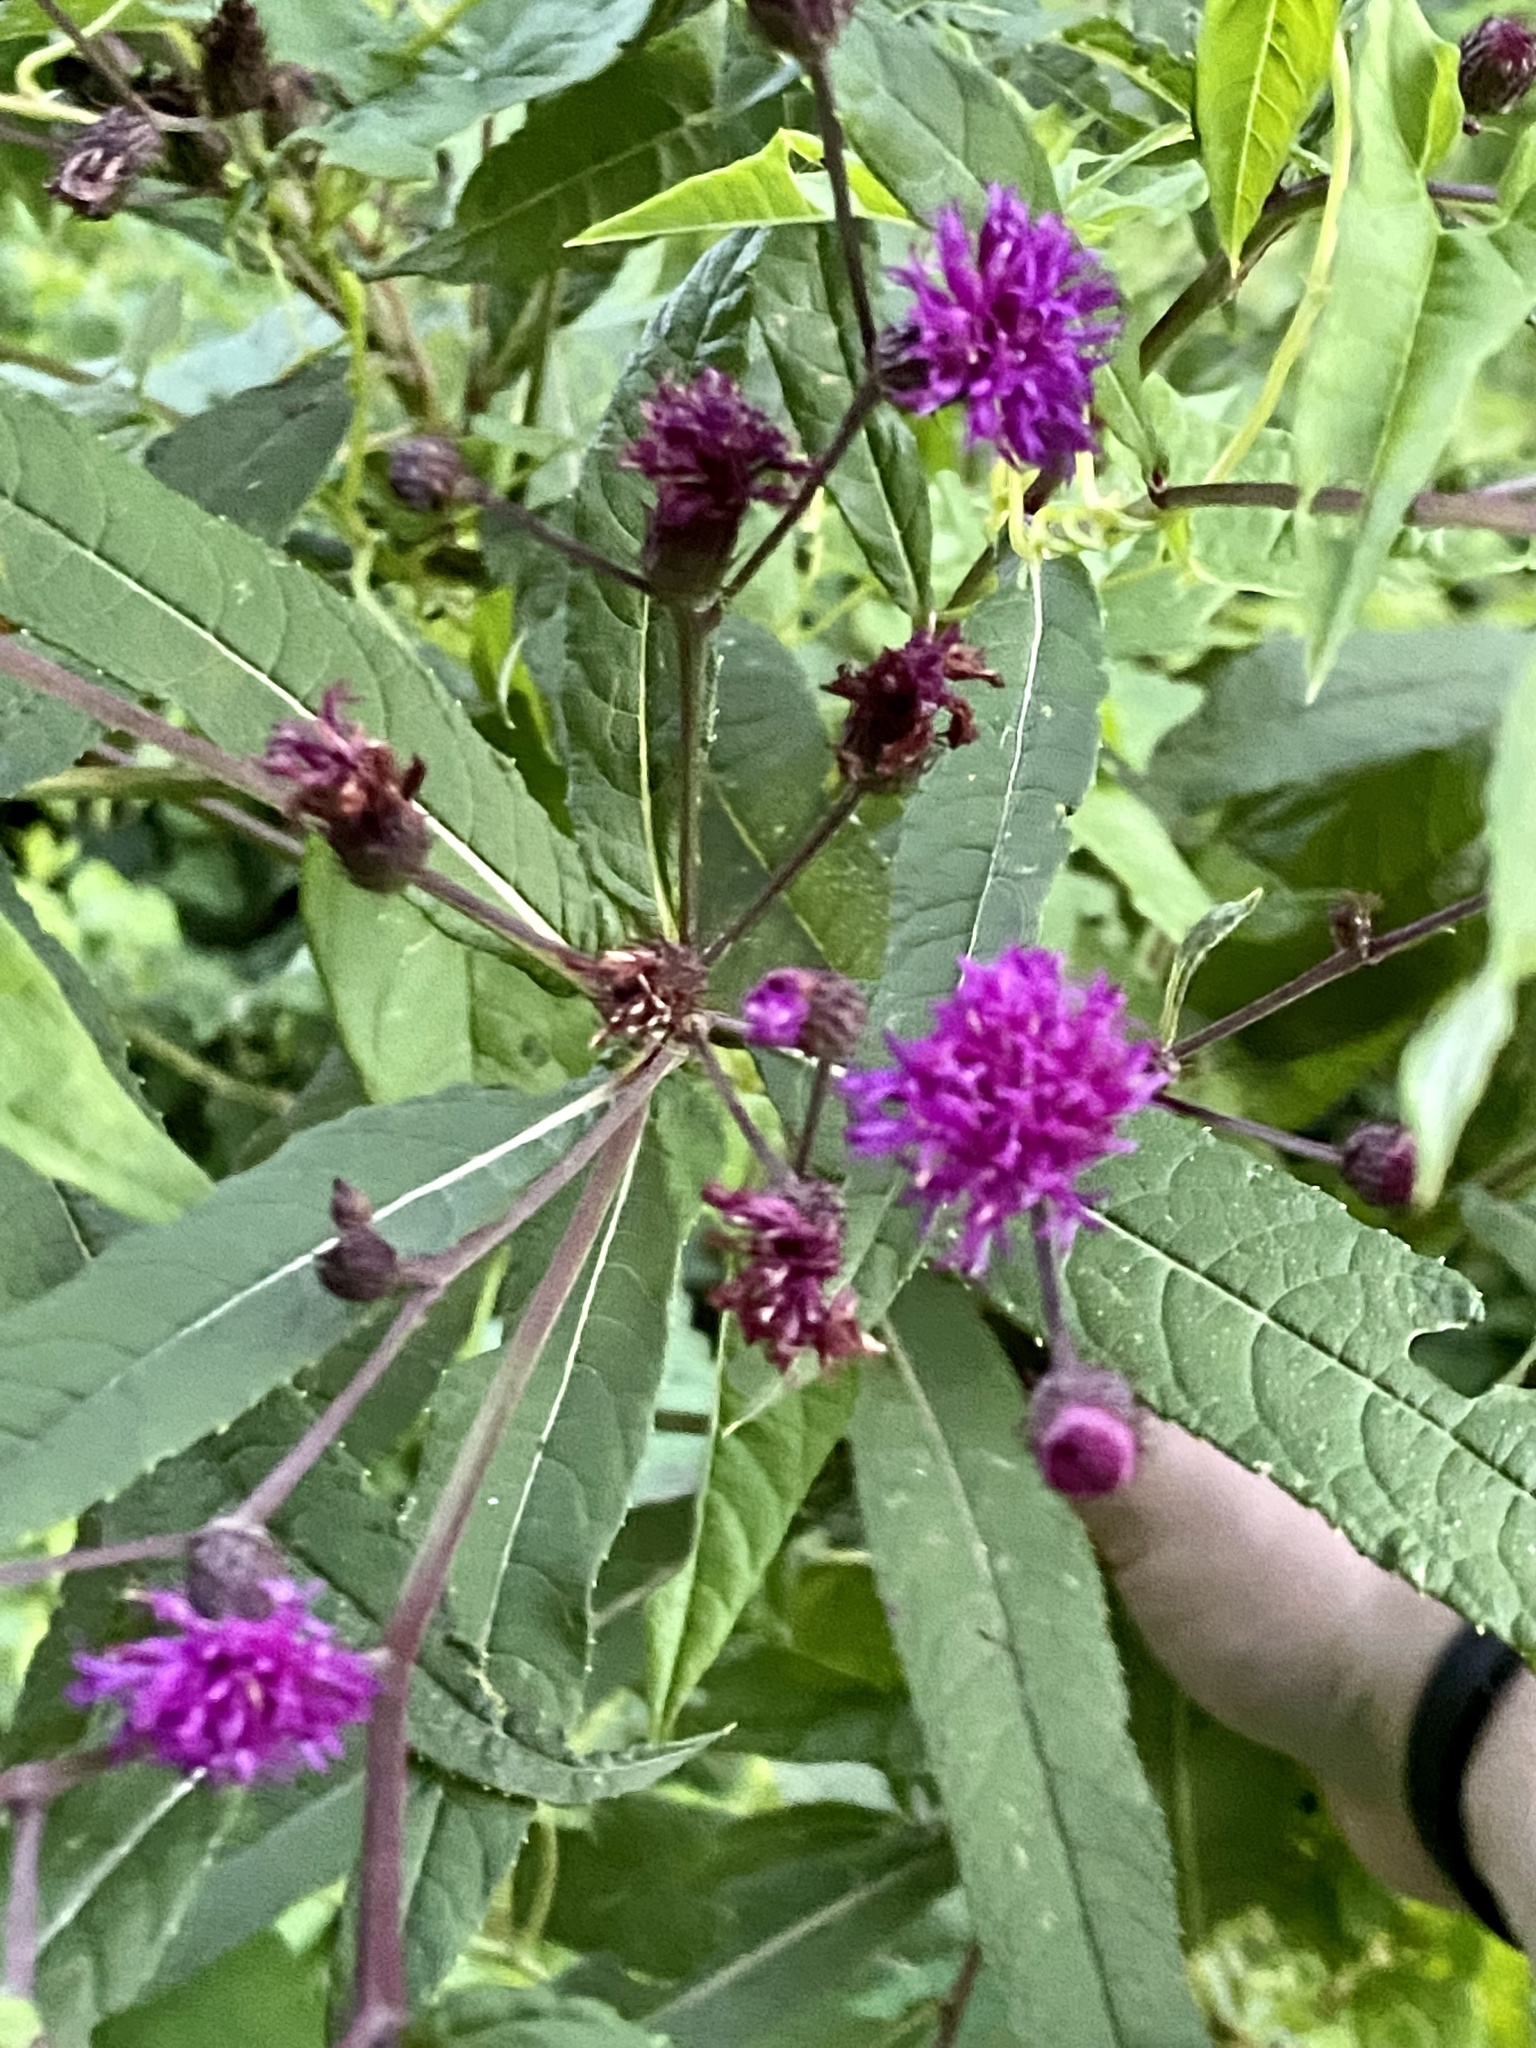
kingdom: Plantae
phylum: Tracheophyta
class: Magnoliopsida
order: Asterales
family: Asteraceae
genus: Vernonia
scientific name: Vernonia noveboracensis
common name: New york ironweed
